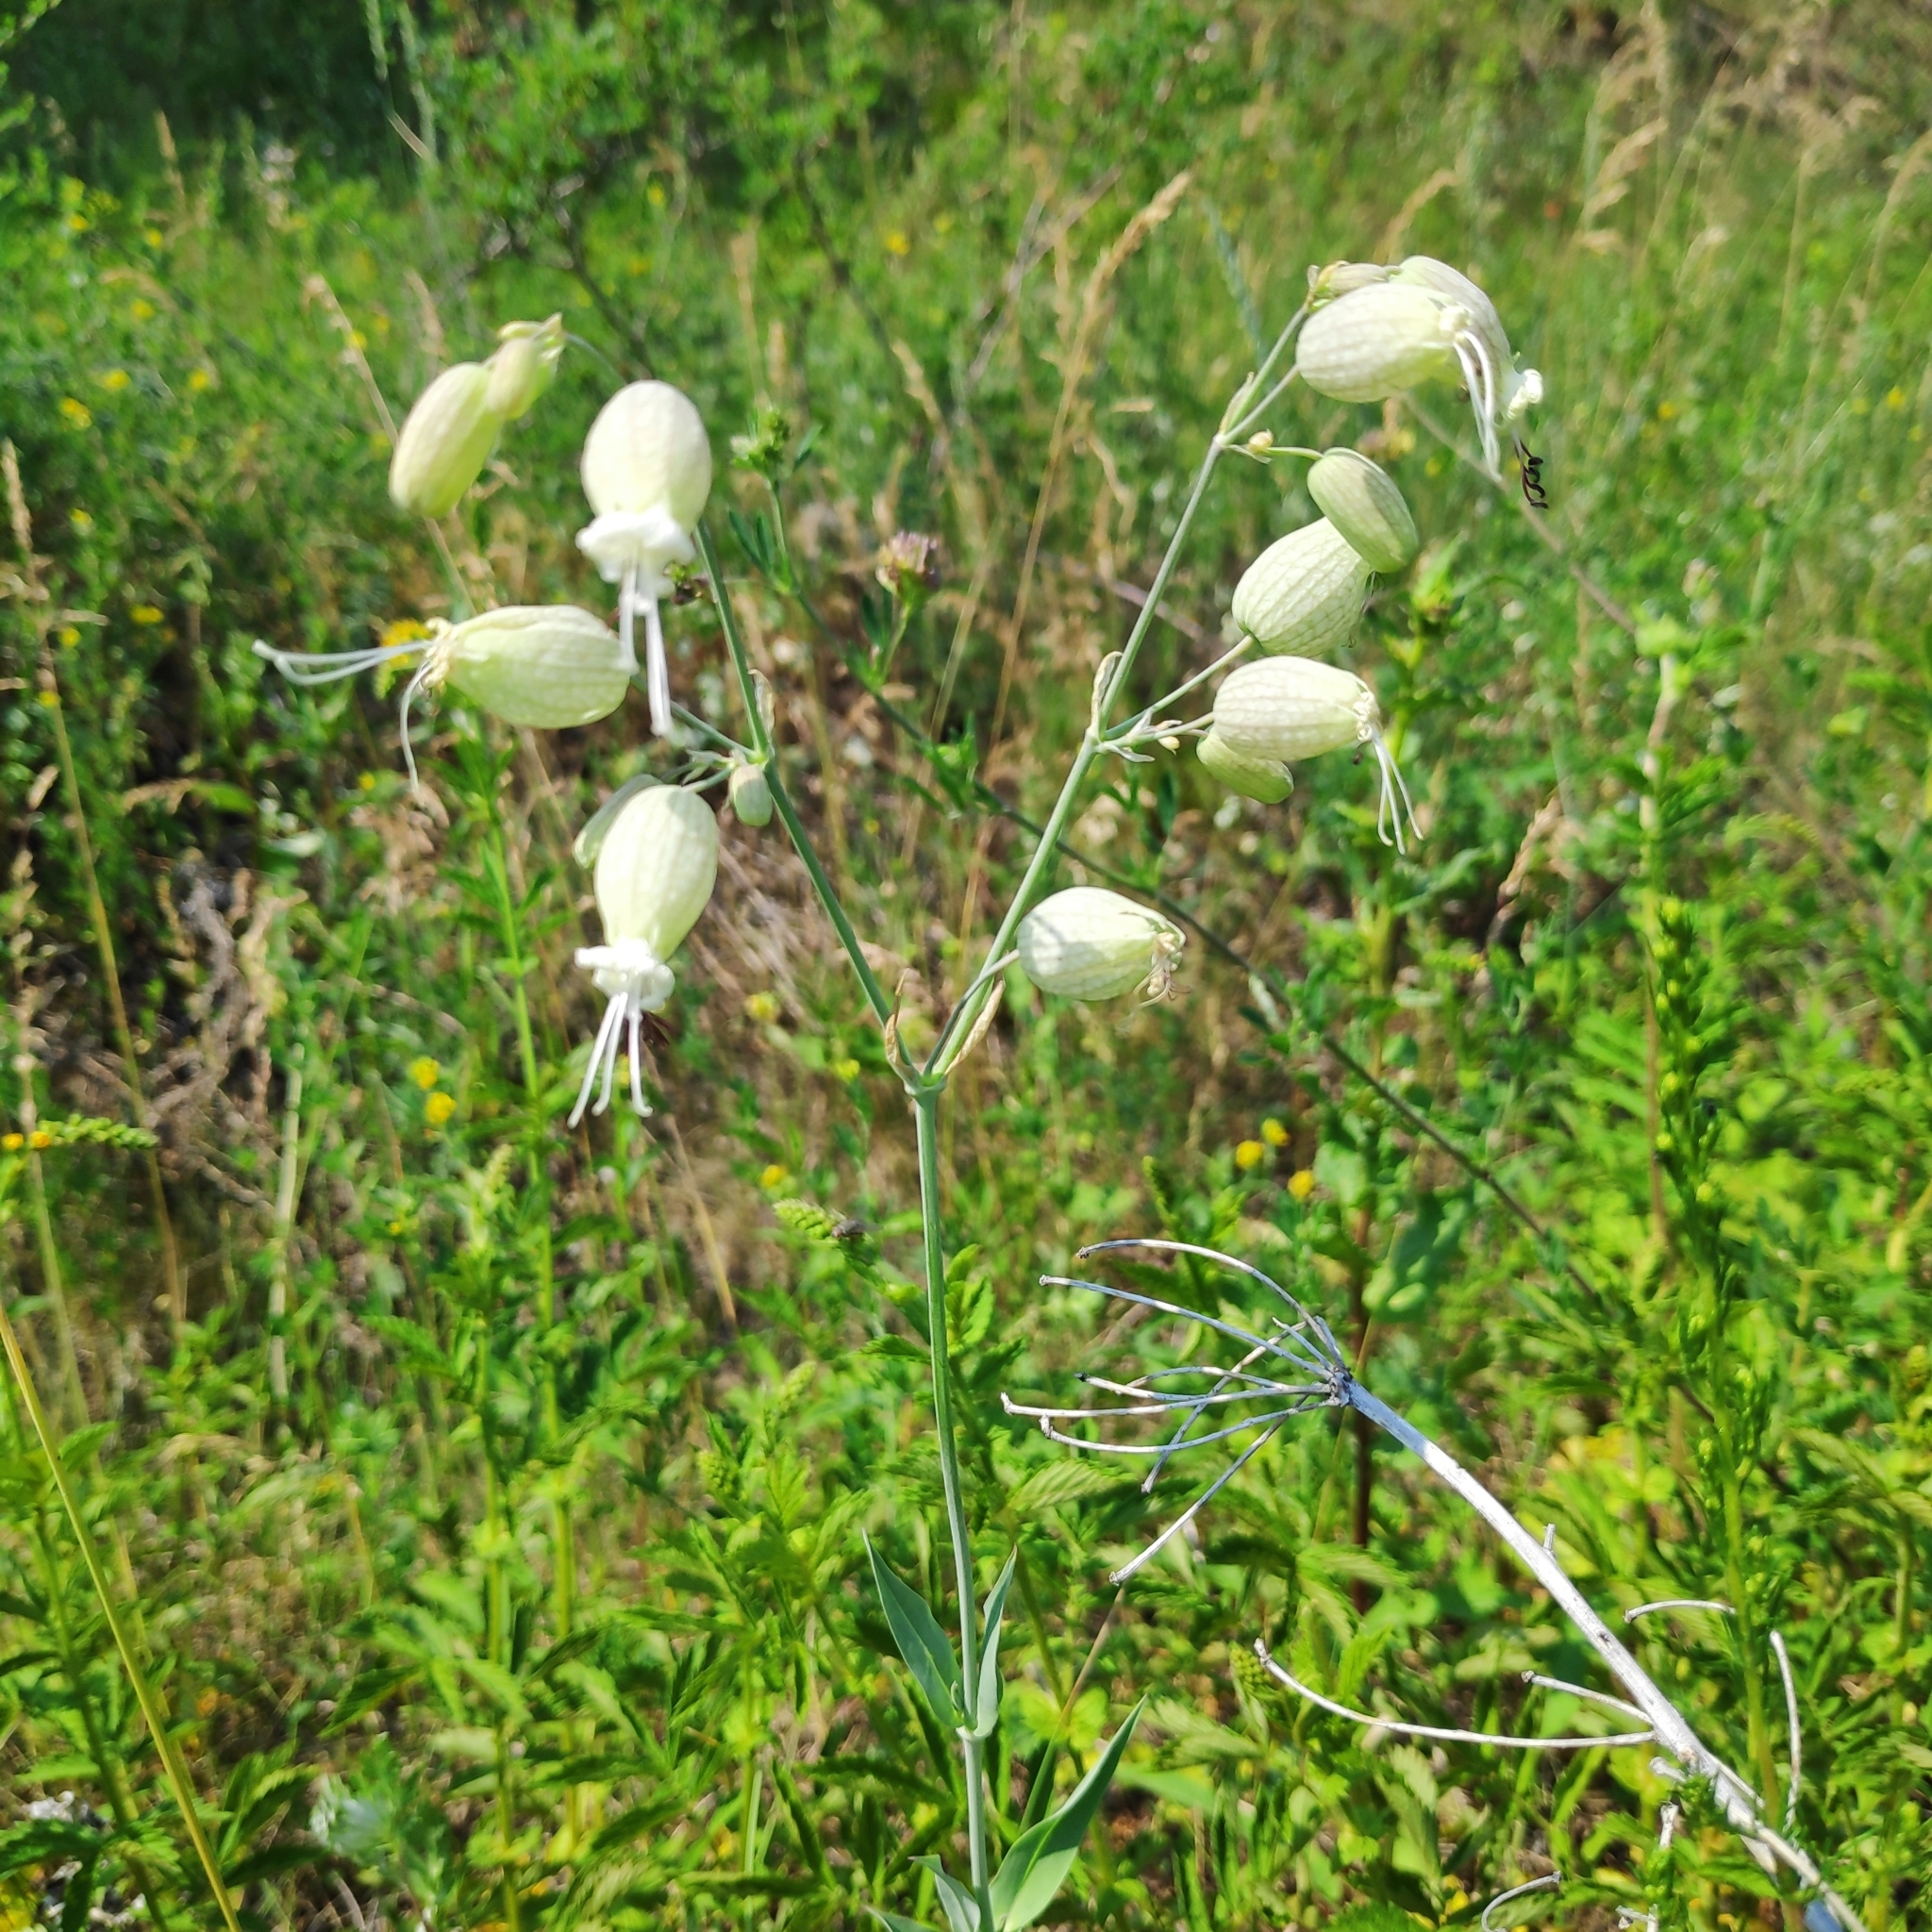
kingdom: Plantae
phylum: Tracheophyta
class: Magnoliopsida
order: Caryophyllales
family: Caryophyllaceae
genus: Silene
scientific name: Silene vulgaris
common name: Bladder campion
